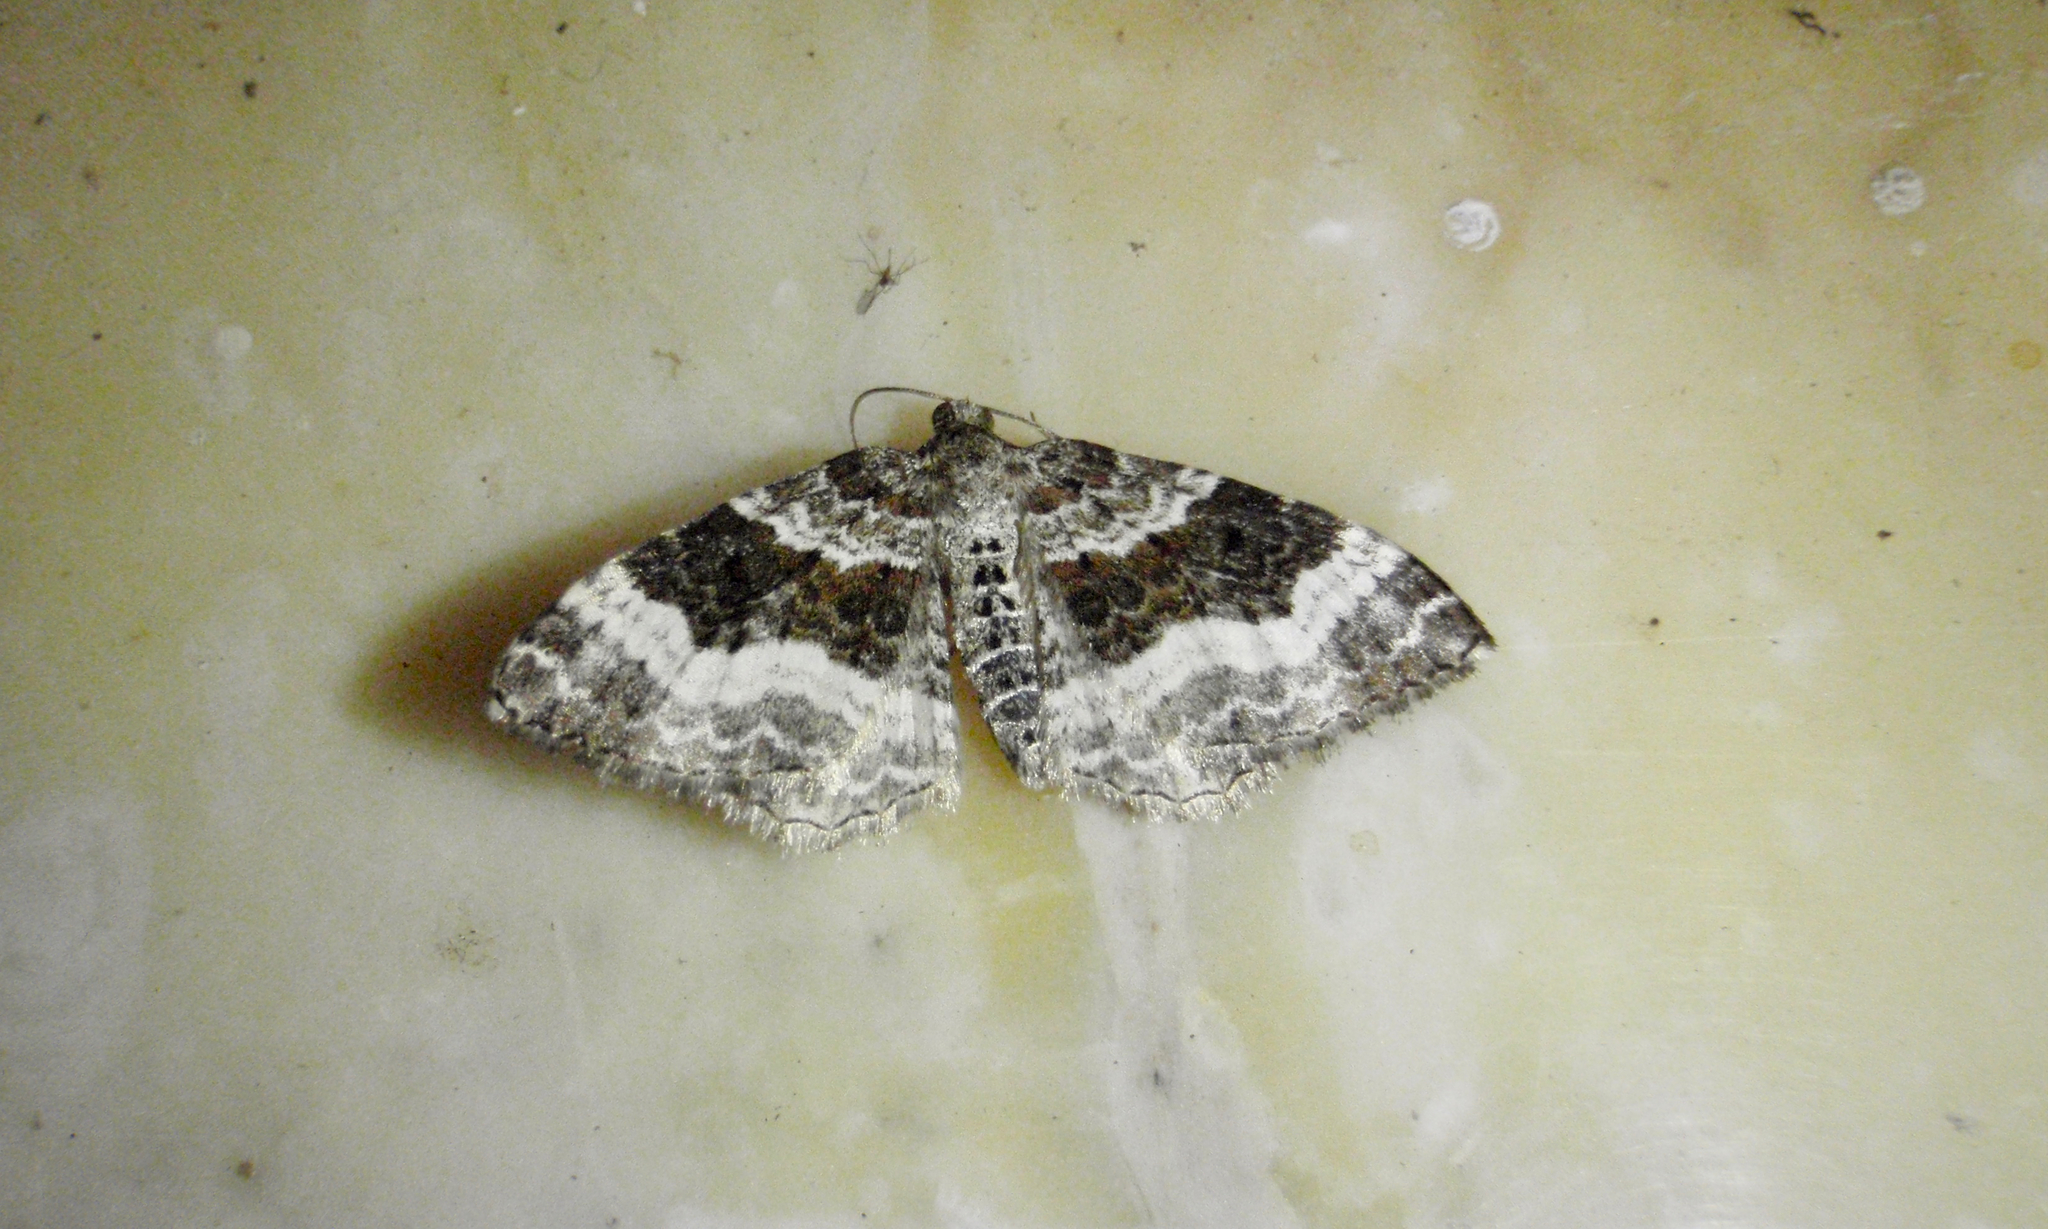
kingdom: Animalia
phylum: Arthropoda
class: Insecta
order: Lepidoptera
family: Geometridae
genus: Epirrhoe
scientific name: Epirrhoe alternata
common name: Common carpet
